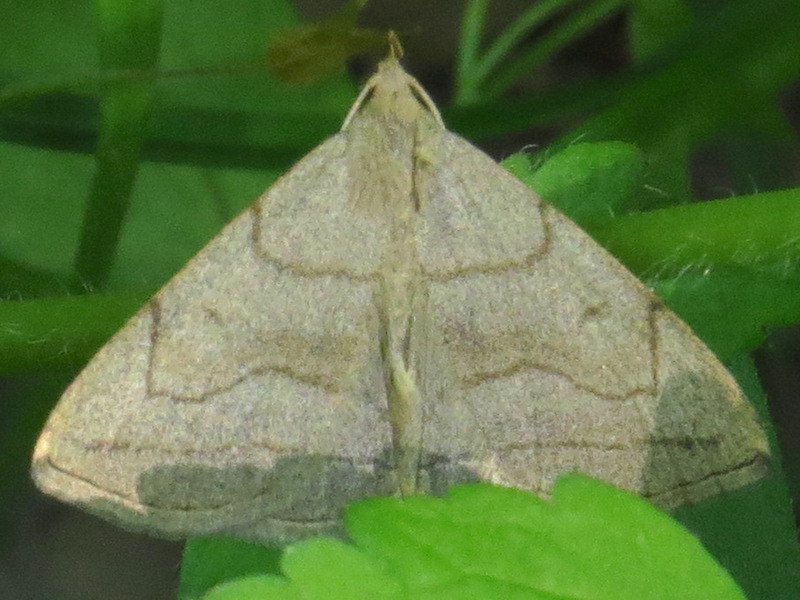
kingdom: Animalia
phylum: Arthropoda
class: Insecta
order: Lepidoptera
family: Erebidae
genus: Zanclognatha
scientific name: Zanclognatha pedipilalis
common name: Grayish fan-foot
